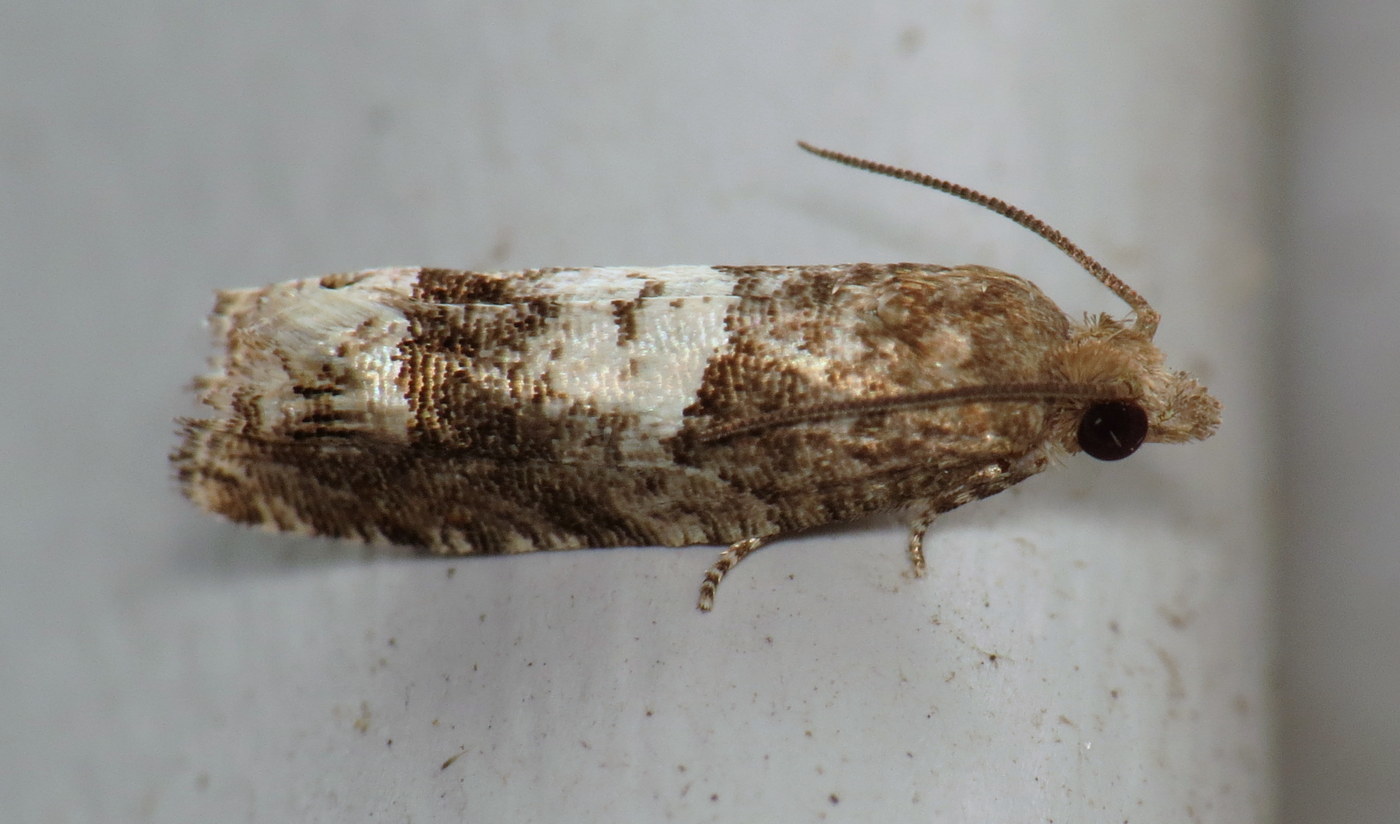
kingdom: Animalia
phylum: Arthropoda
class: Insecta
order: Lepidoptera
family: Tortricidae
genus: Eucosma
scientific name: Eucosma parmatana
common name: Aster eucosma moth
